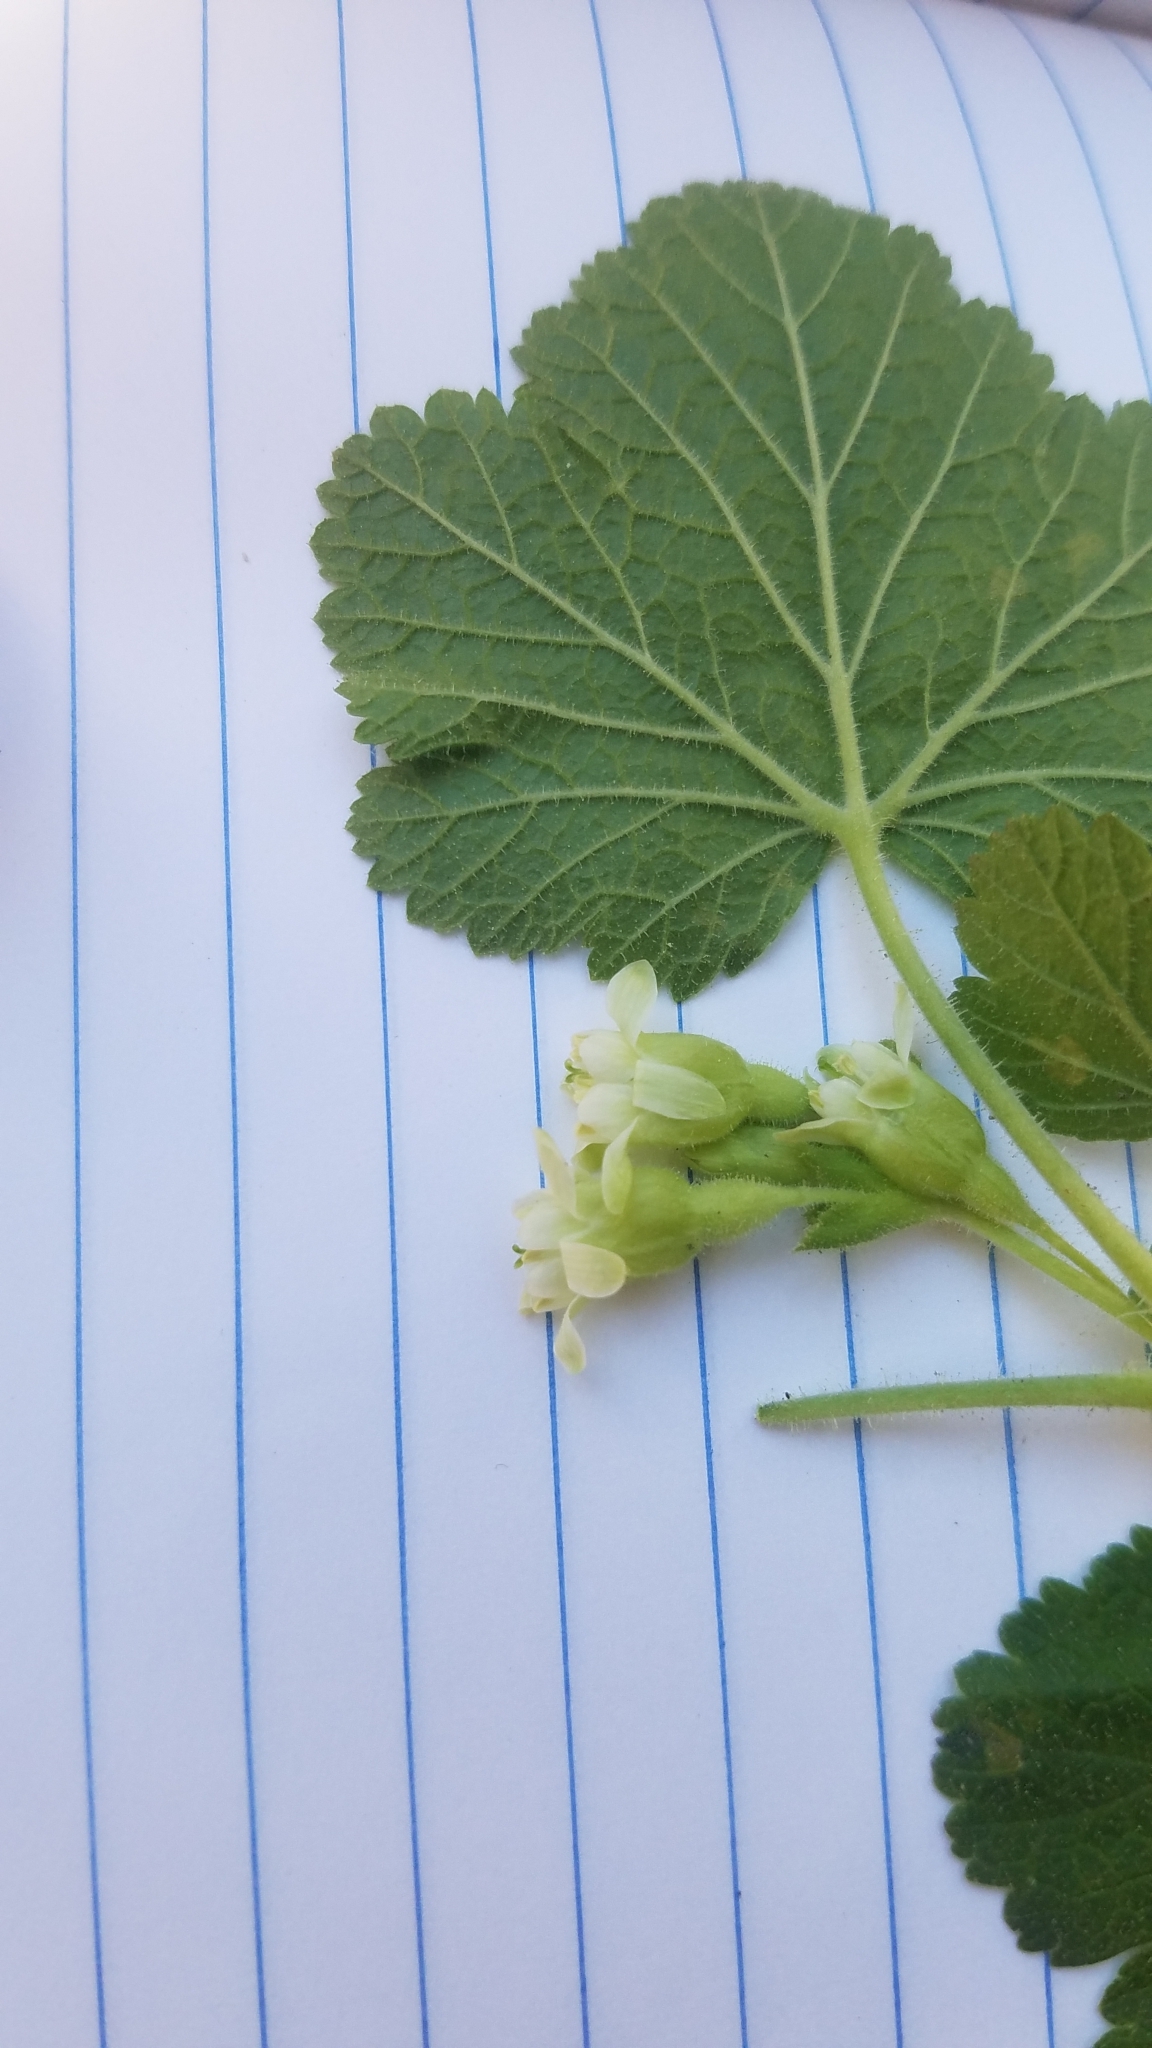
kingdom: Plantae
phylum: Tracheophyta
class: Magnoliopsida
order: Saxifragales
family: Grossulariaceae
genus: Ribes
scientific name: Ribes viscosissimum
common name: Sticky currant
